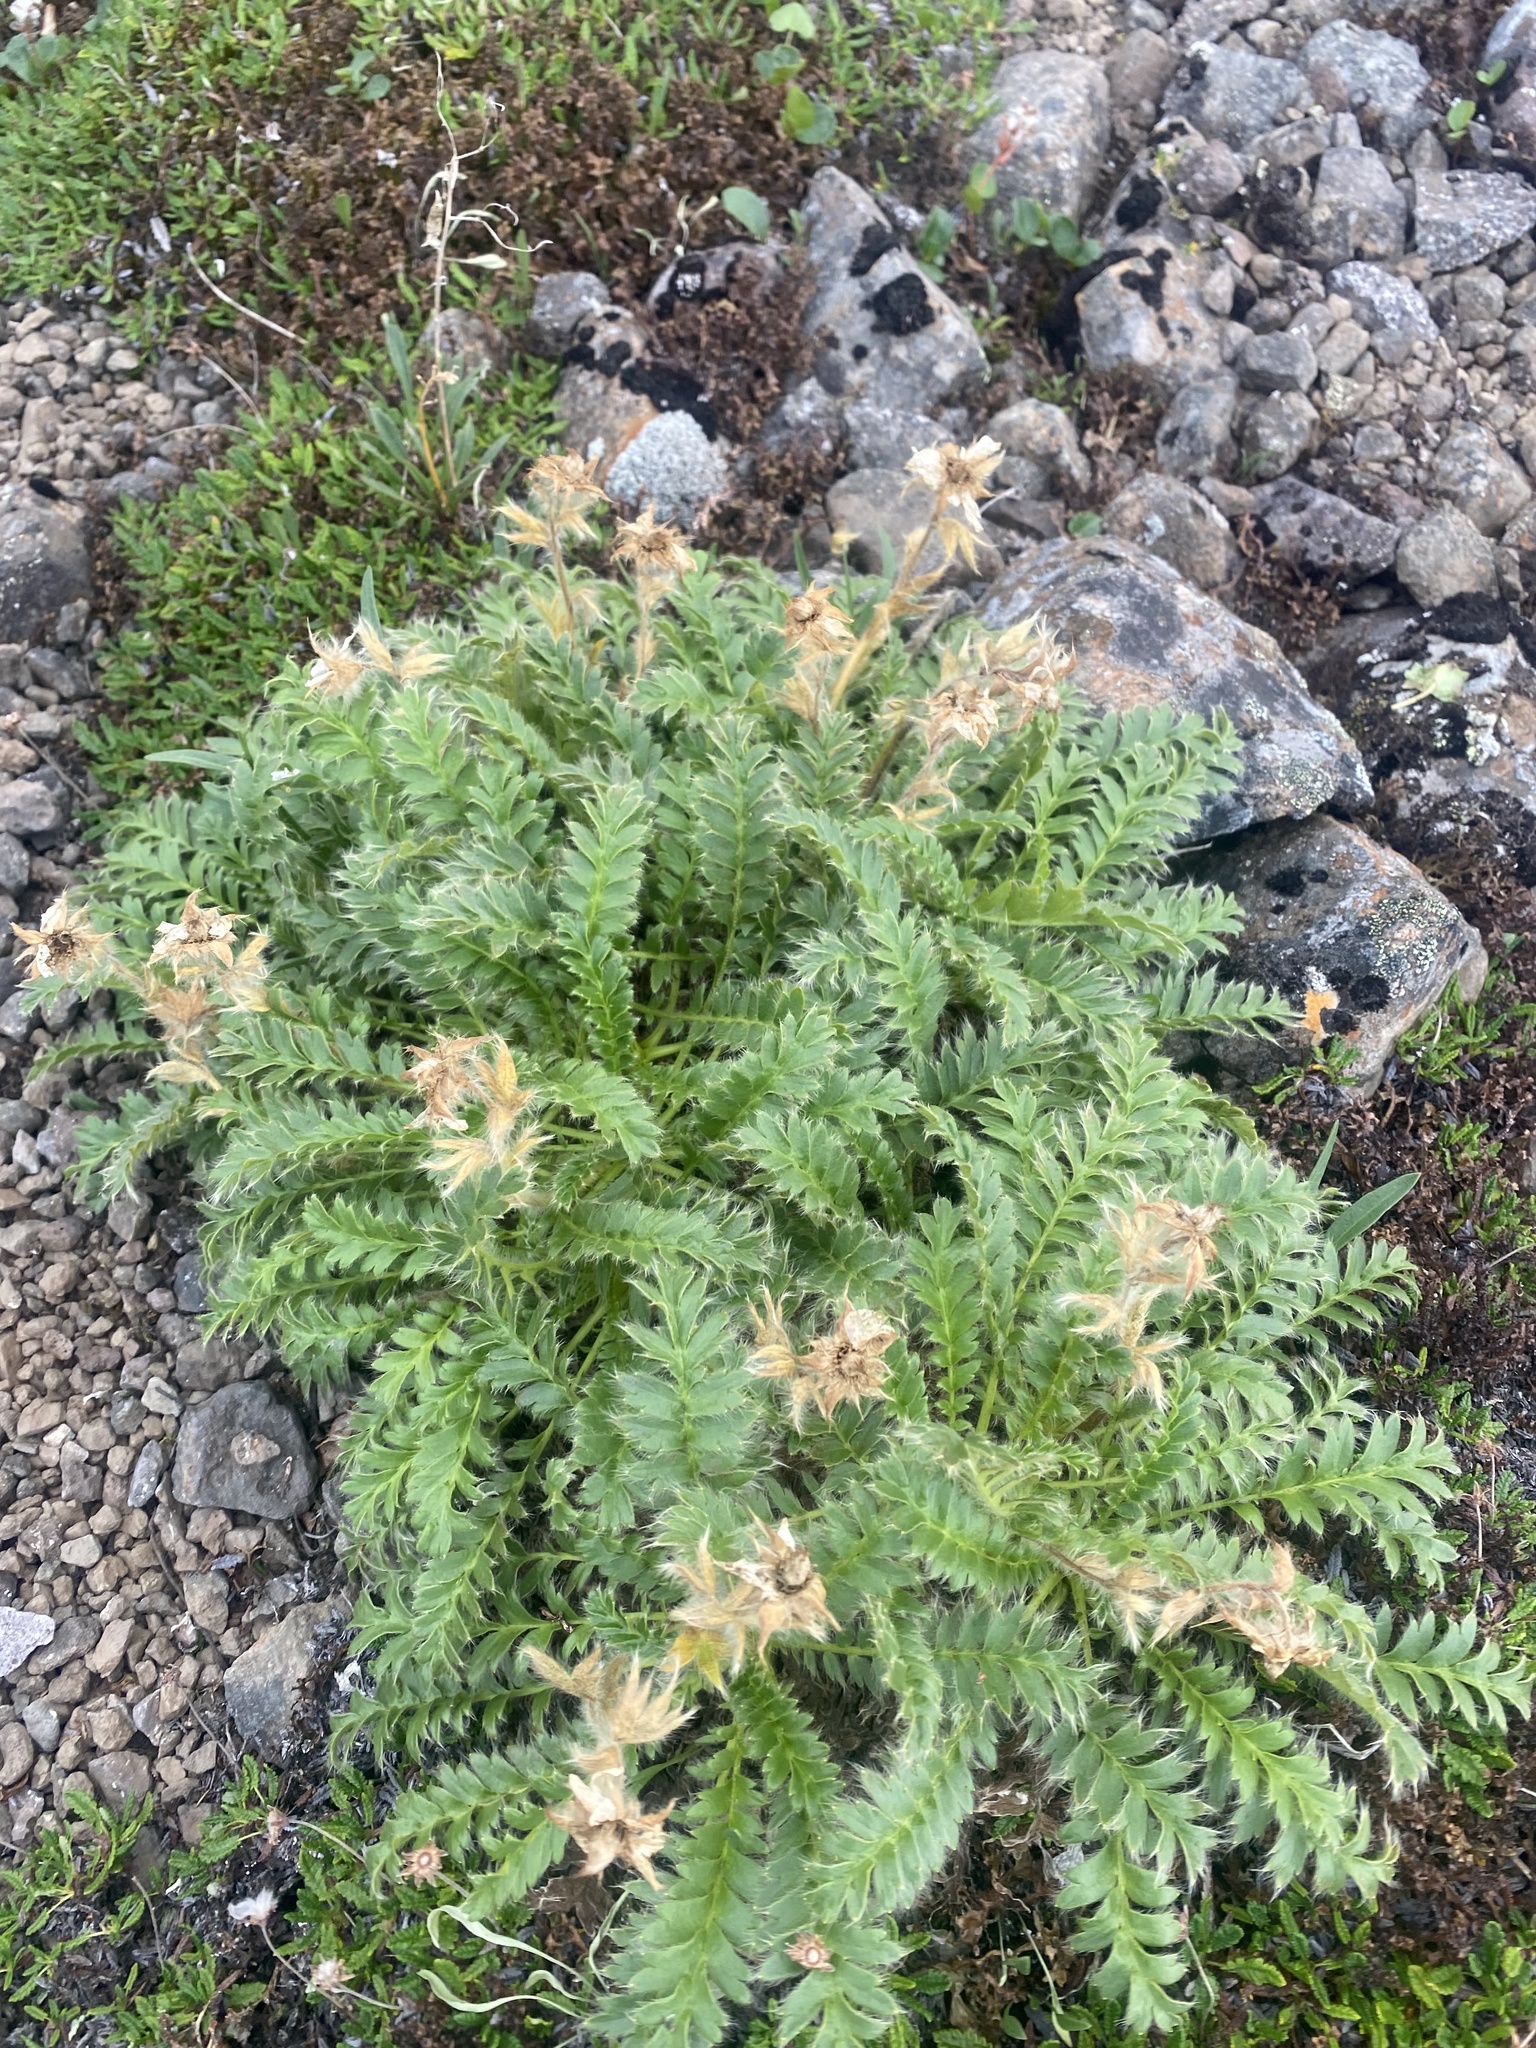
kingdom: Plantae
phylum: Tracheophyta
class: Magnoliopsida
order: Rosales
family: Rosaceae
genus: Geum
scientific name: Geum glaciale
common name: Glacier avens
